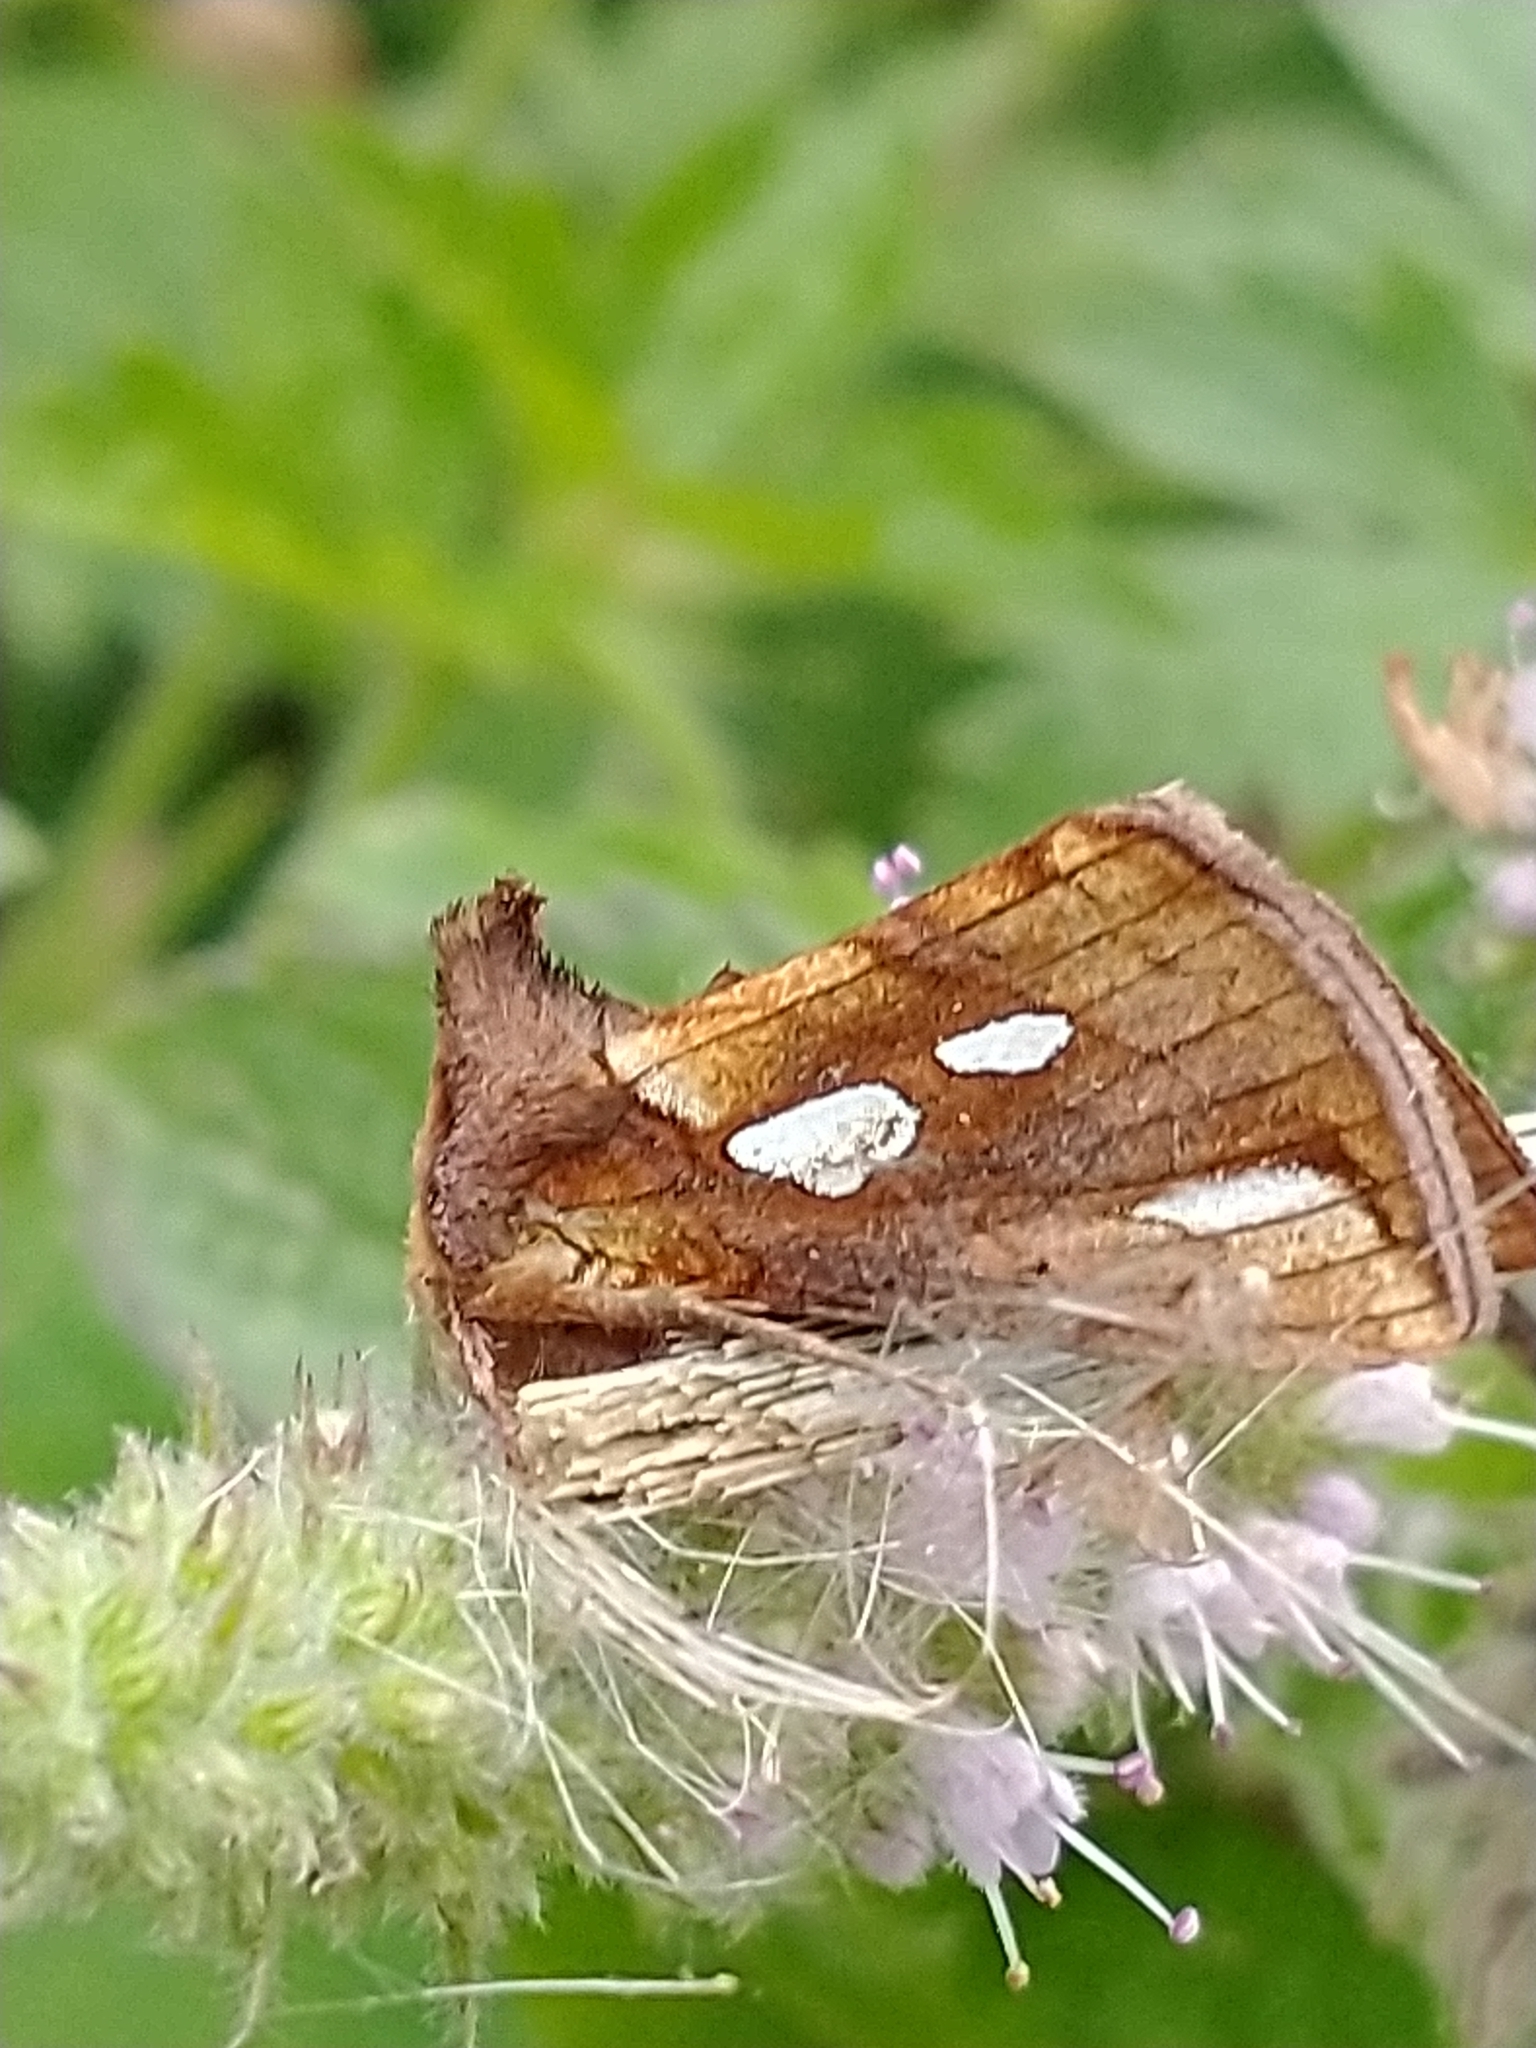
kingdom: Animalia
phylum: Arthropoda
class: Insecta
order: Lepidoptera
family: Noctuidae
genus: Plusia
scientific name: Plusia festucae
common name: Gold spot
